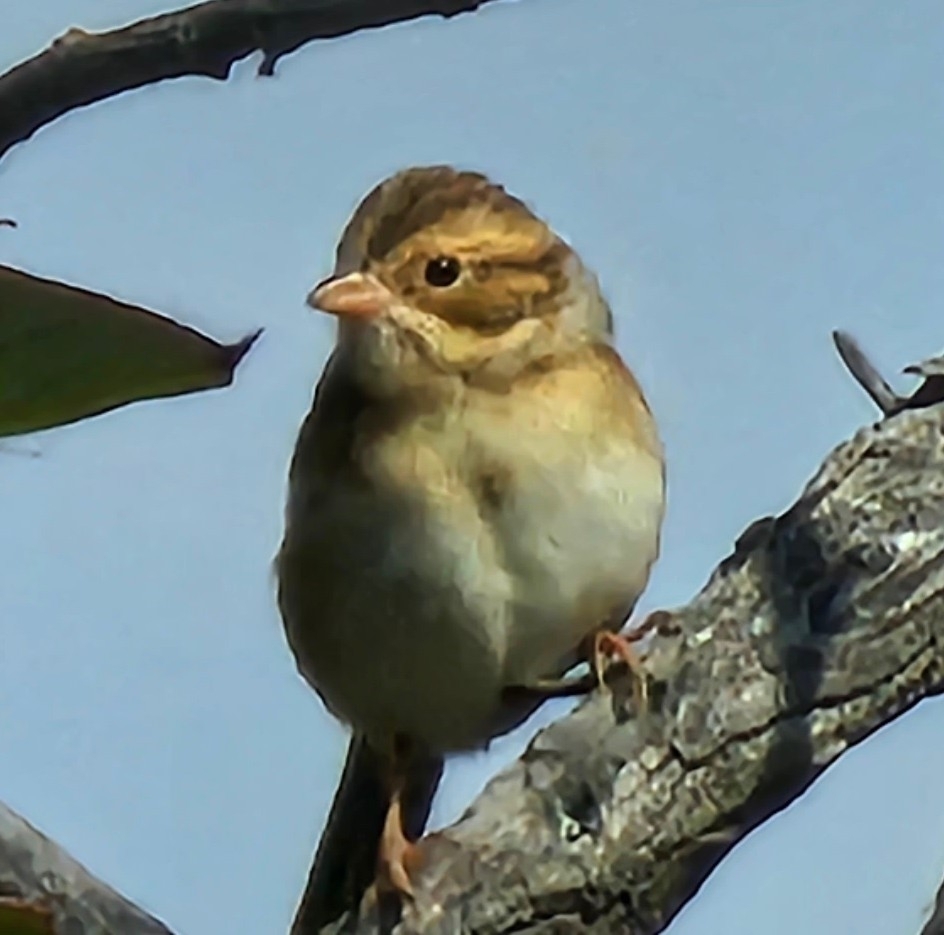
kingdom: Animalia
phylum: Chordata
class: Aves
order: Passeriformes
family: Passerellidae
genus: Spizella
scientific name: Spizella pallida
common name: Clay-colored sparrow
